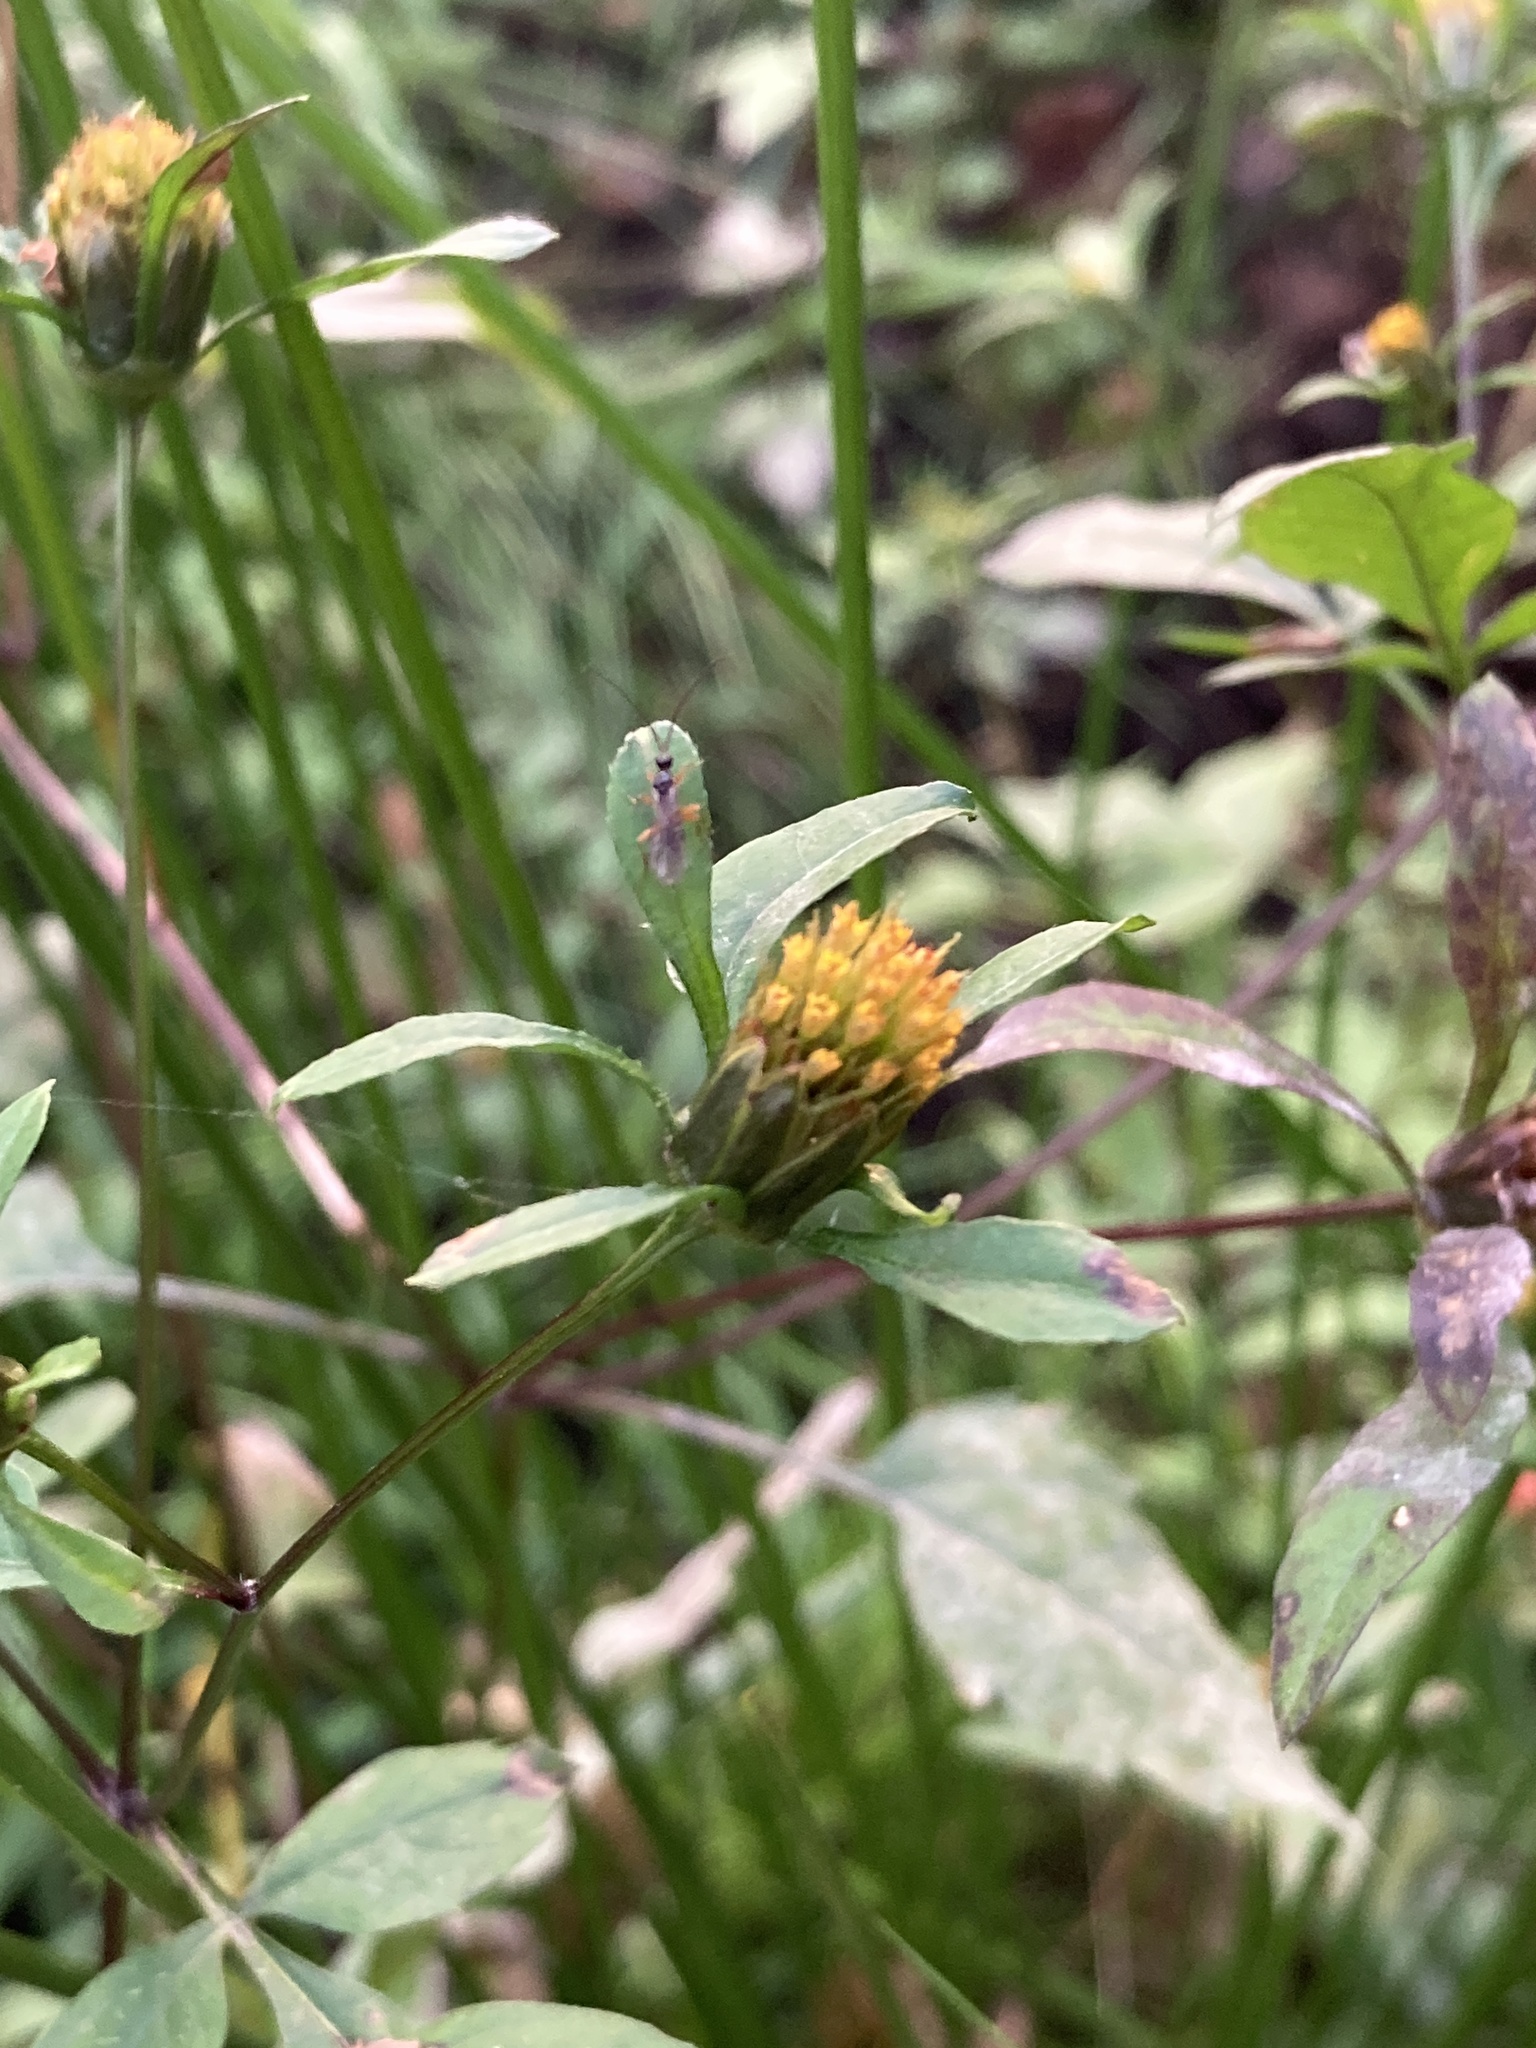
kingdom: Plantae
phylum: Tracheophyta
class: Magnoliopsida
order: Asterales
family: Asteraceae
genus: Bidens
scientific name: Bidens frondosa
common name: Beggarticks
